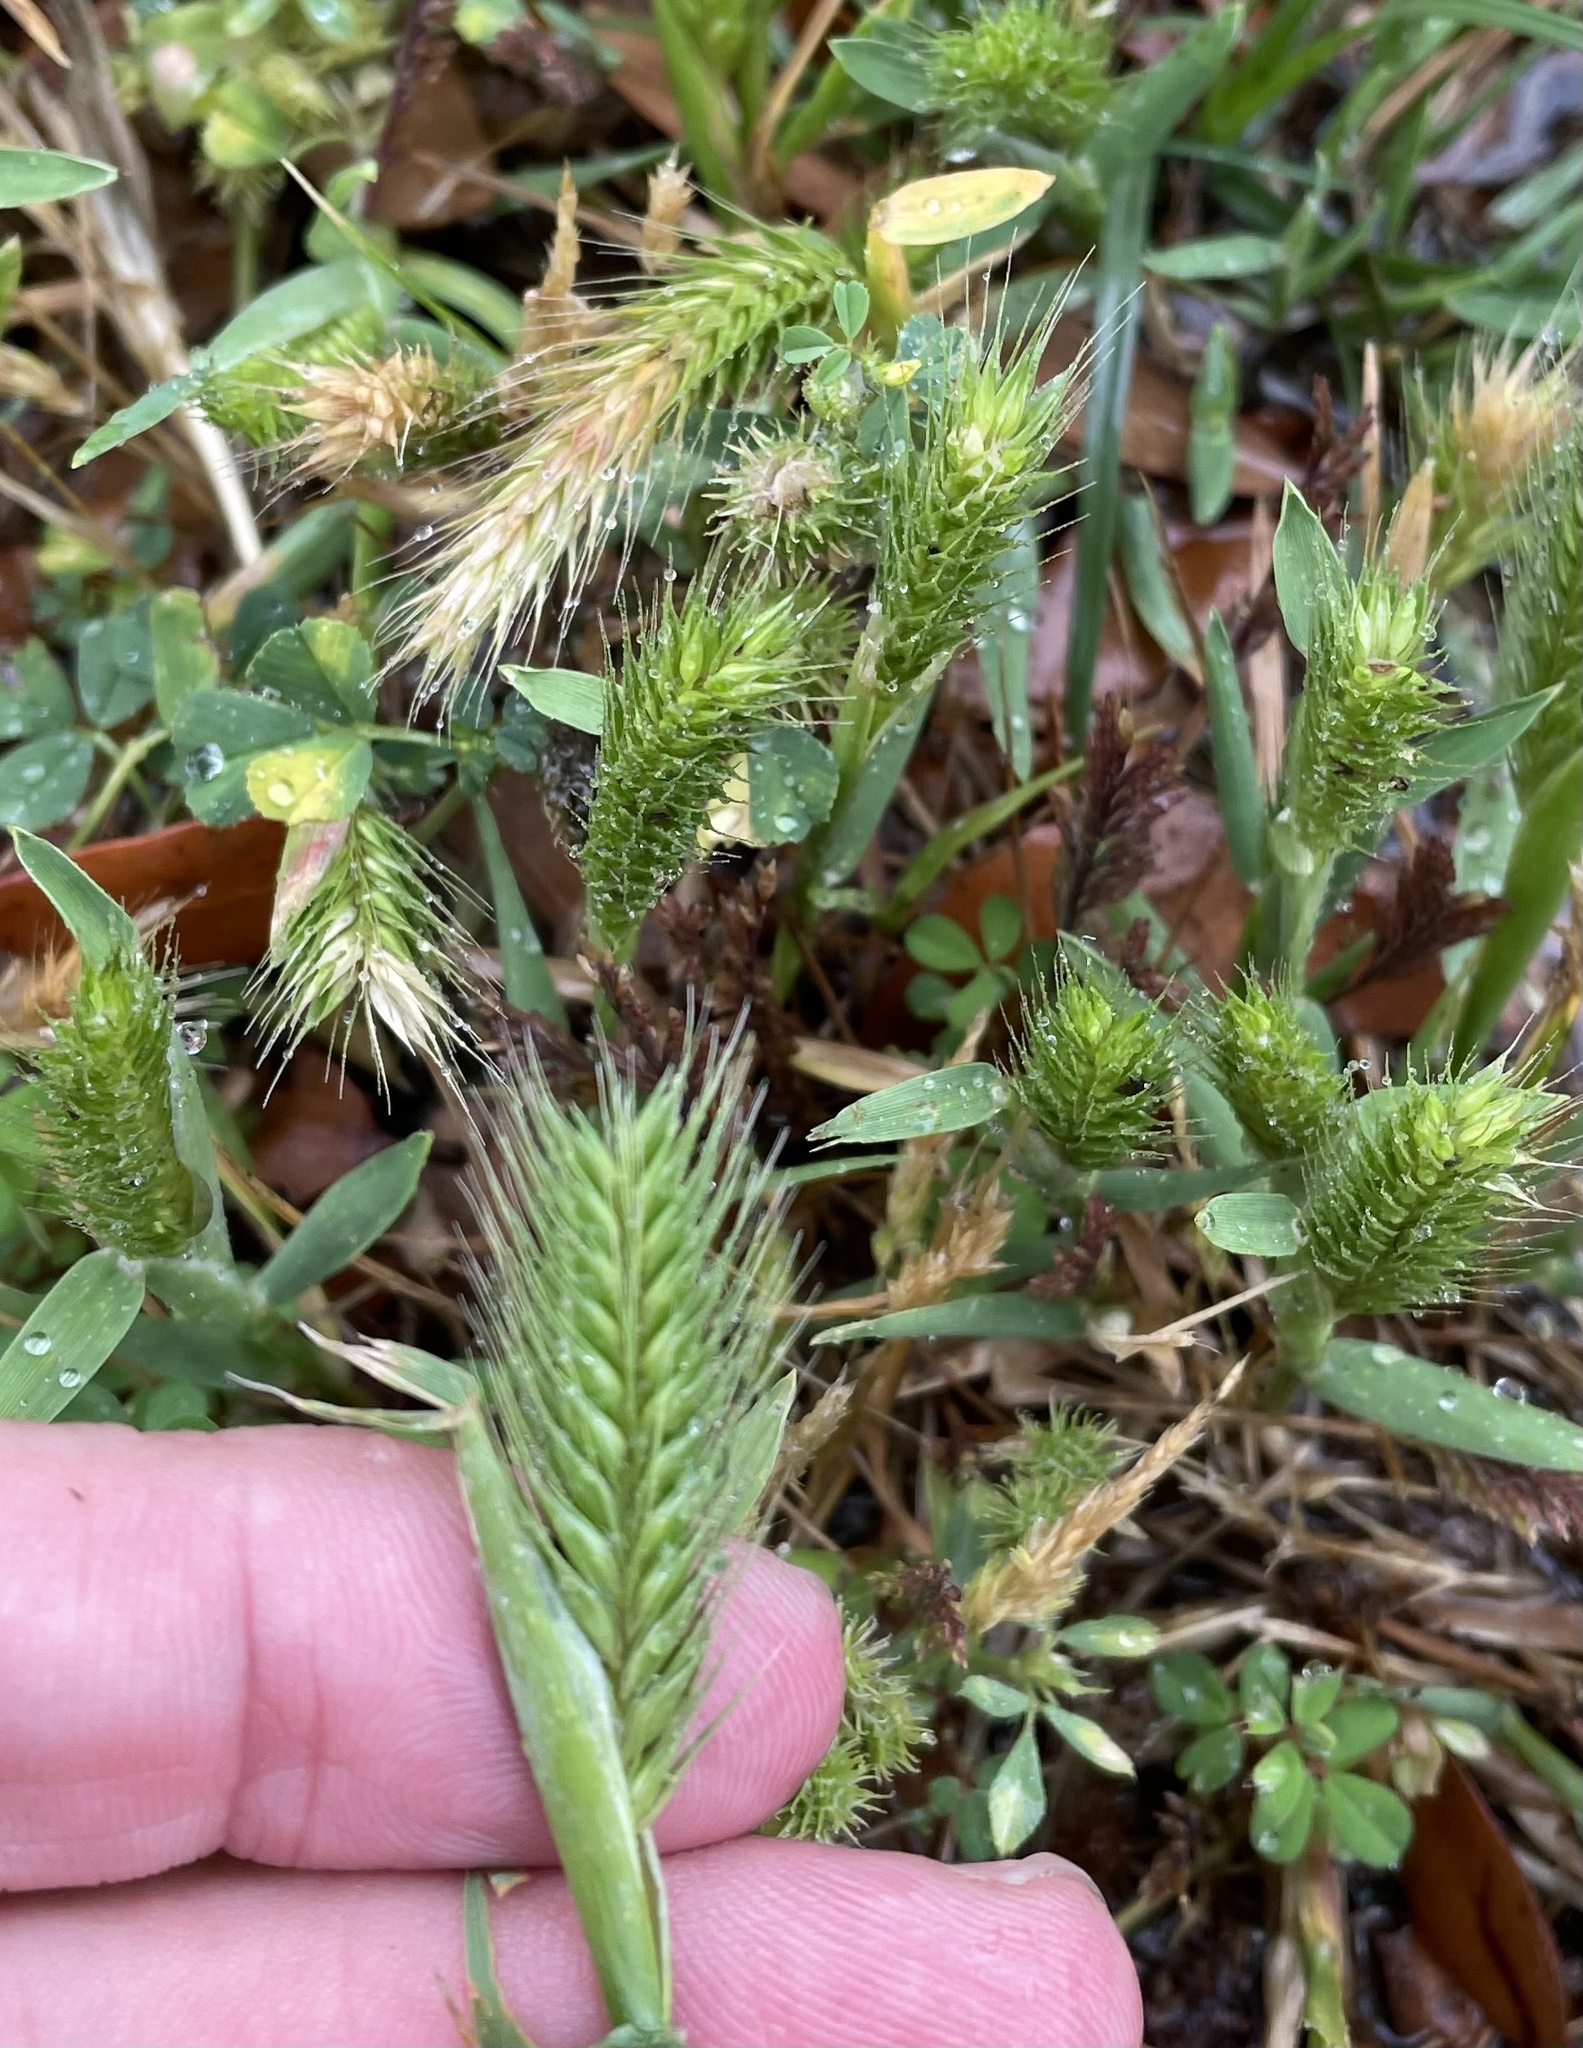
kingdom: Plantae
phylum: Tracheophyta
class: Liliopsida
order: Poales
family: Poaceae
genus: Hordeum
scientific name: Hordeum pusillum
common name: Little barley
